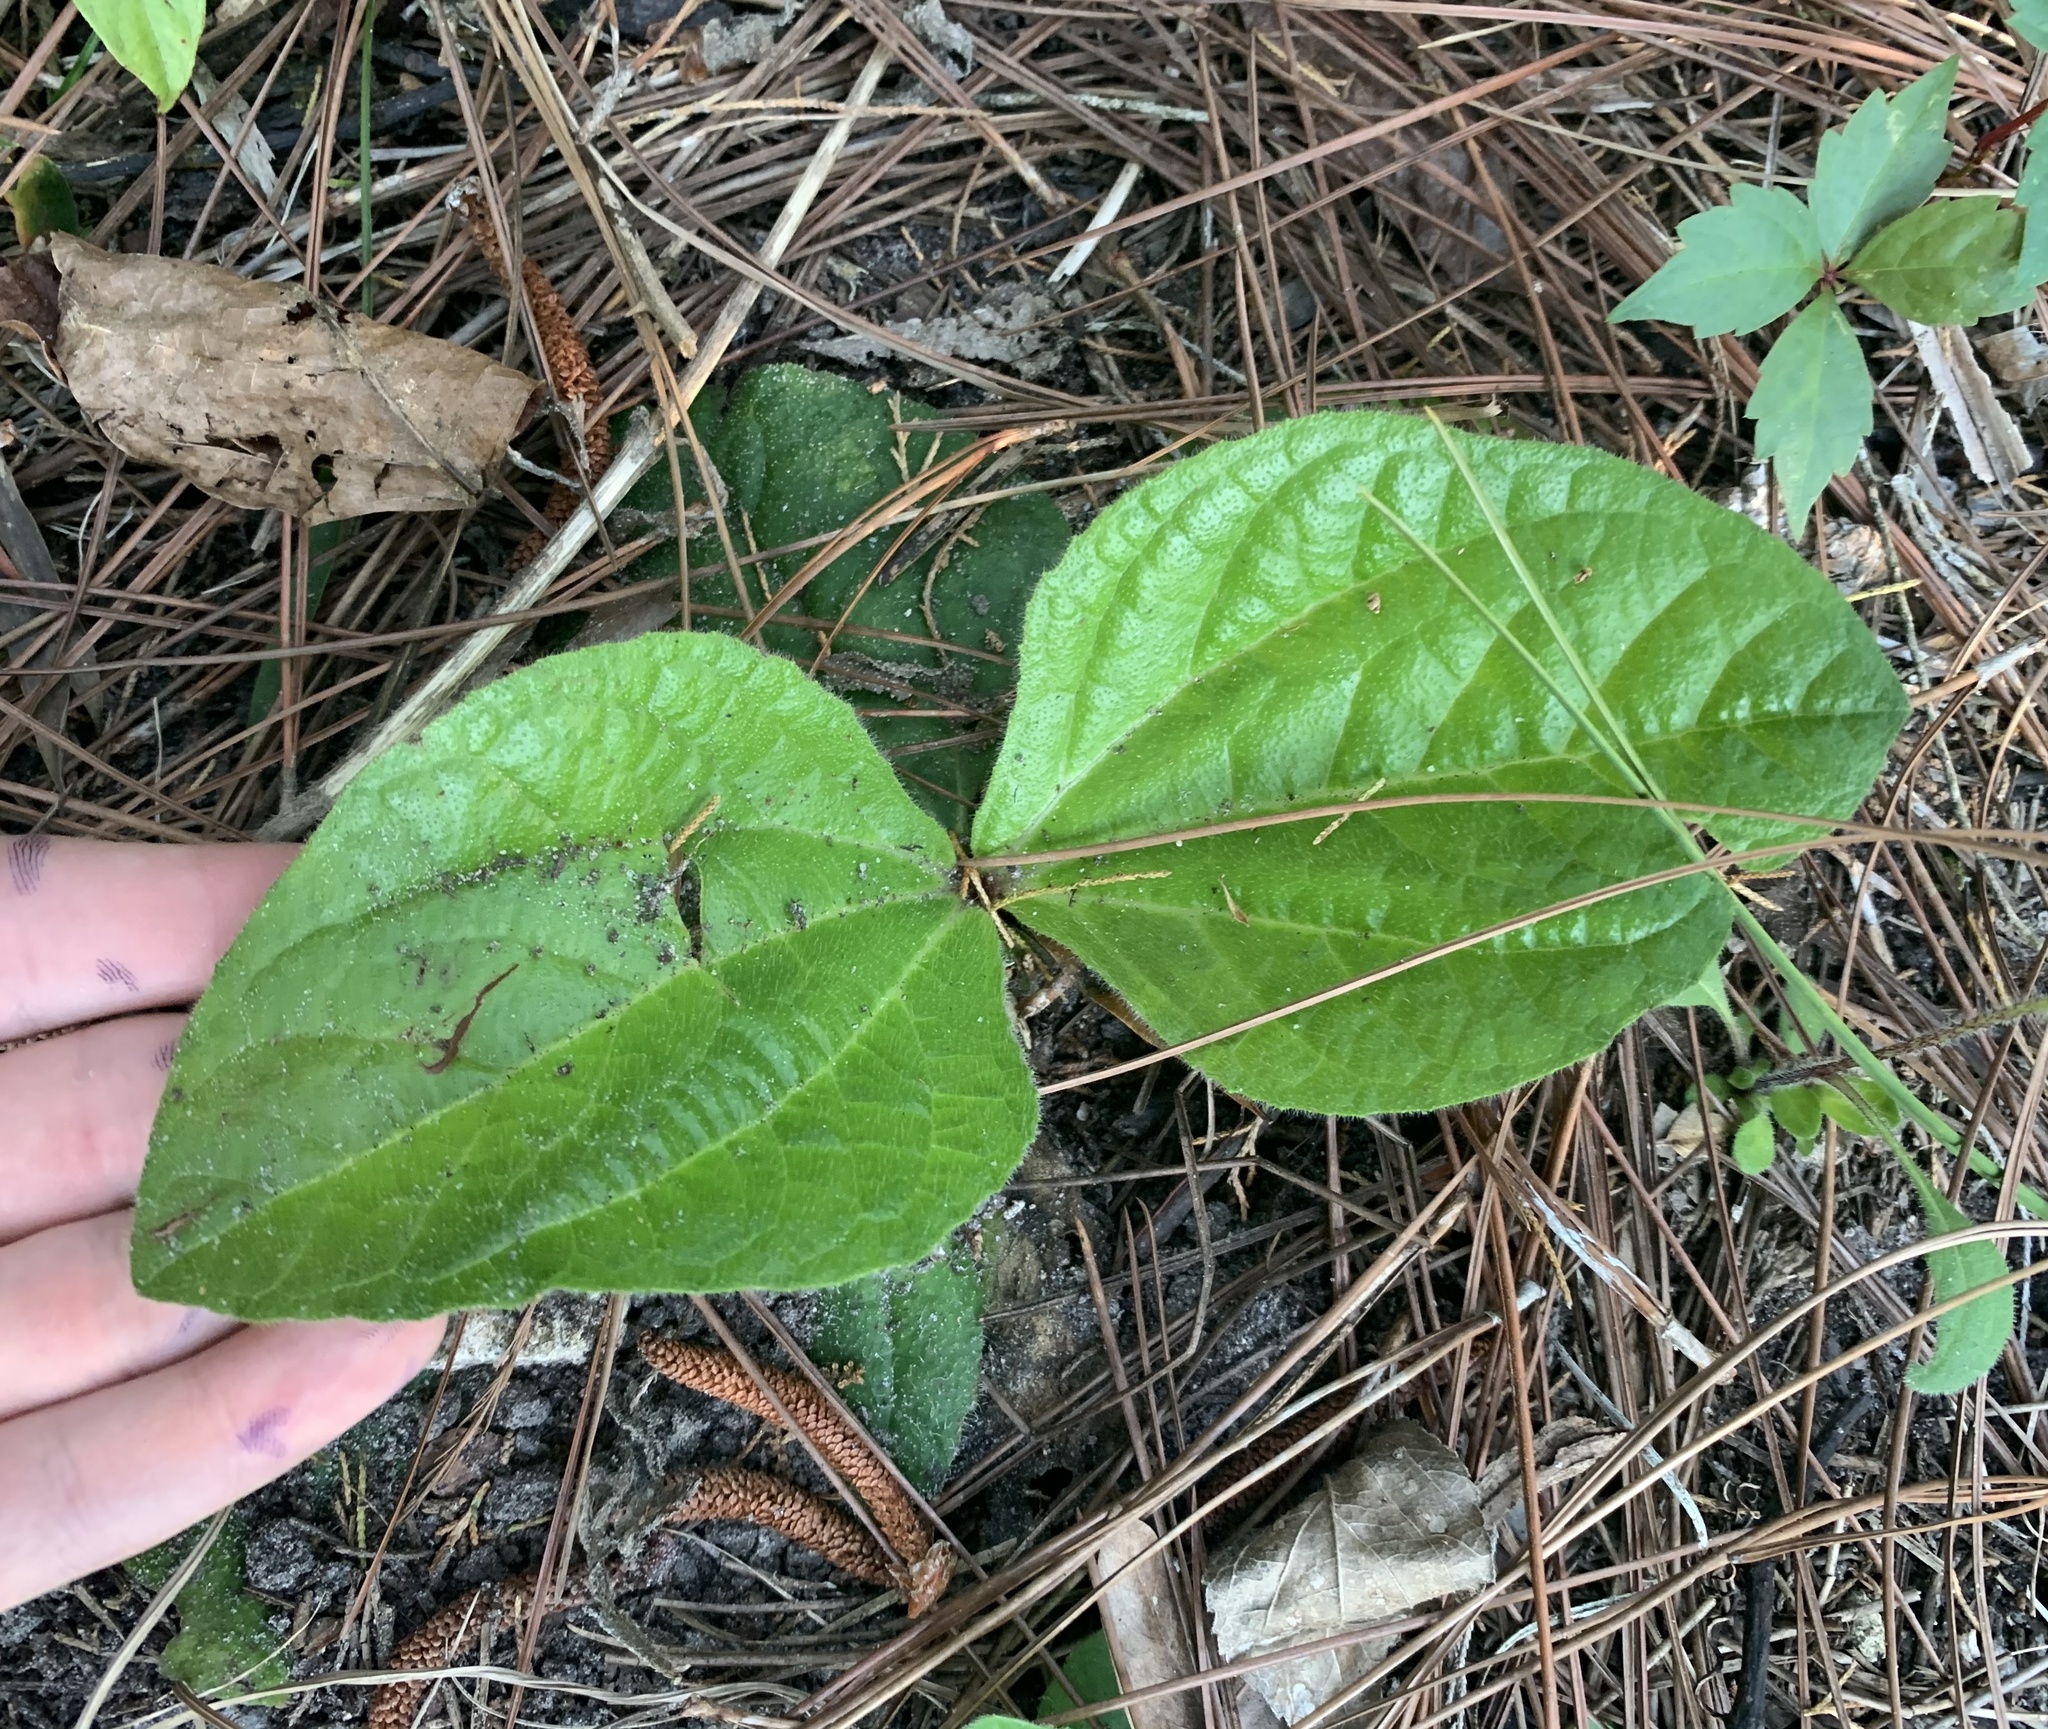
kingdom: Plantae
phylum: Tracheophyta
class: Magnoliopsida
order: Asterales
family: Asteraceae
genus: Helianthus
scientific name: Helianthus radula
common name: Pineland sunflower
